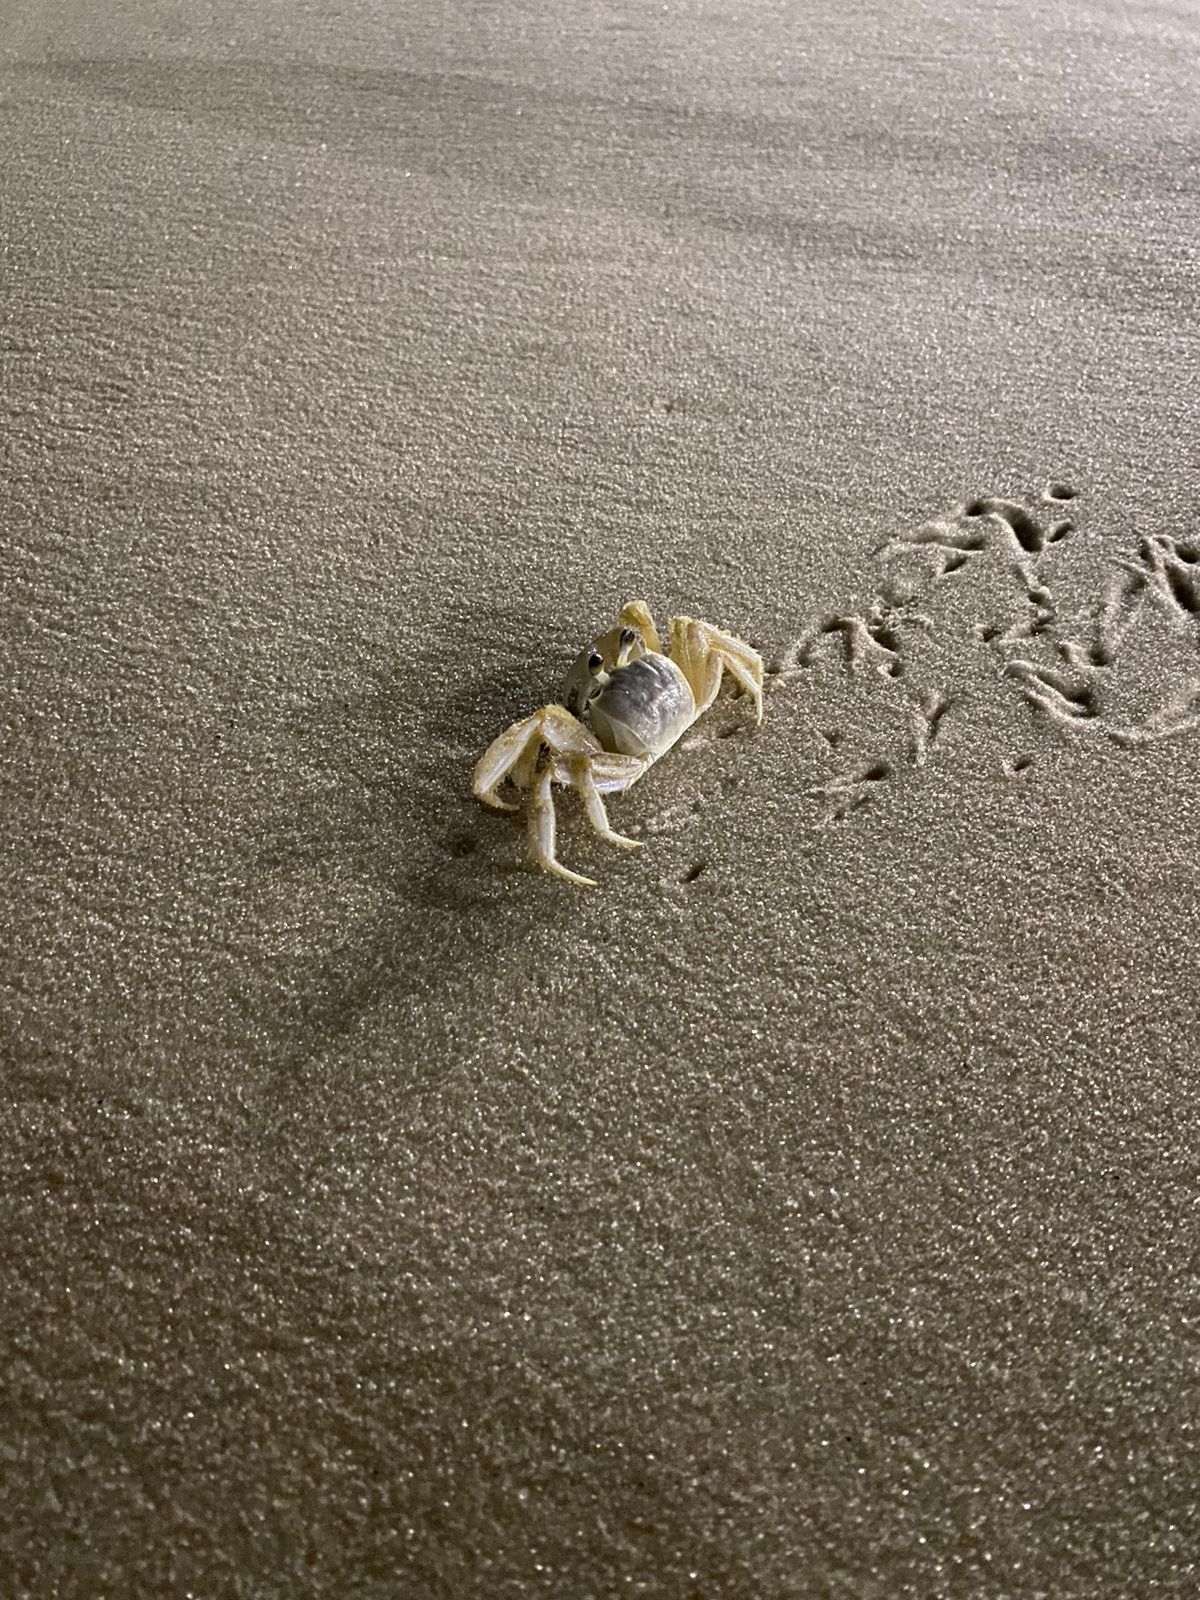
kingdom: Animalia
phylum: Arthropoda
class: Malacostraca
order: Decapoda
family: Ocypodidae
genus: Ocypode
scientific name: Ocypode quadrata
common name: Ghost crab
